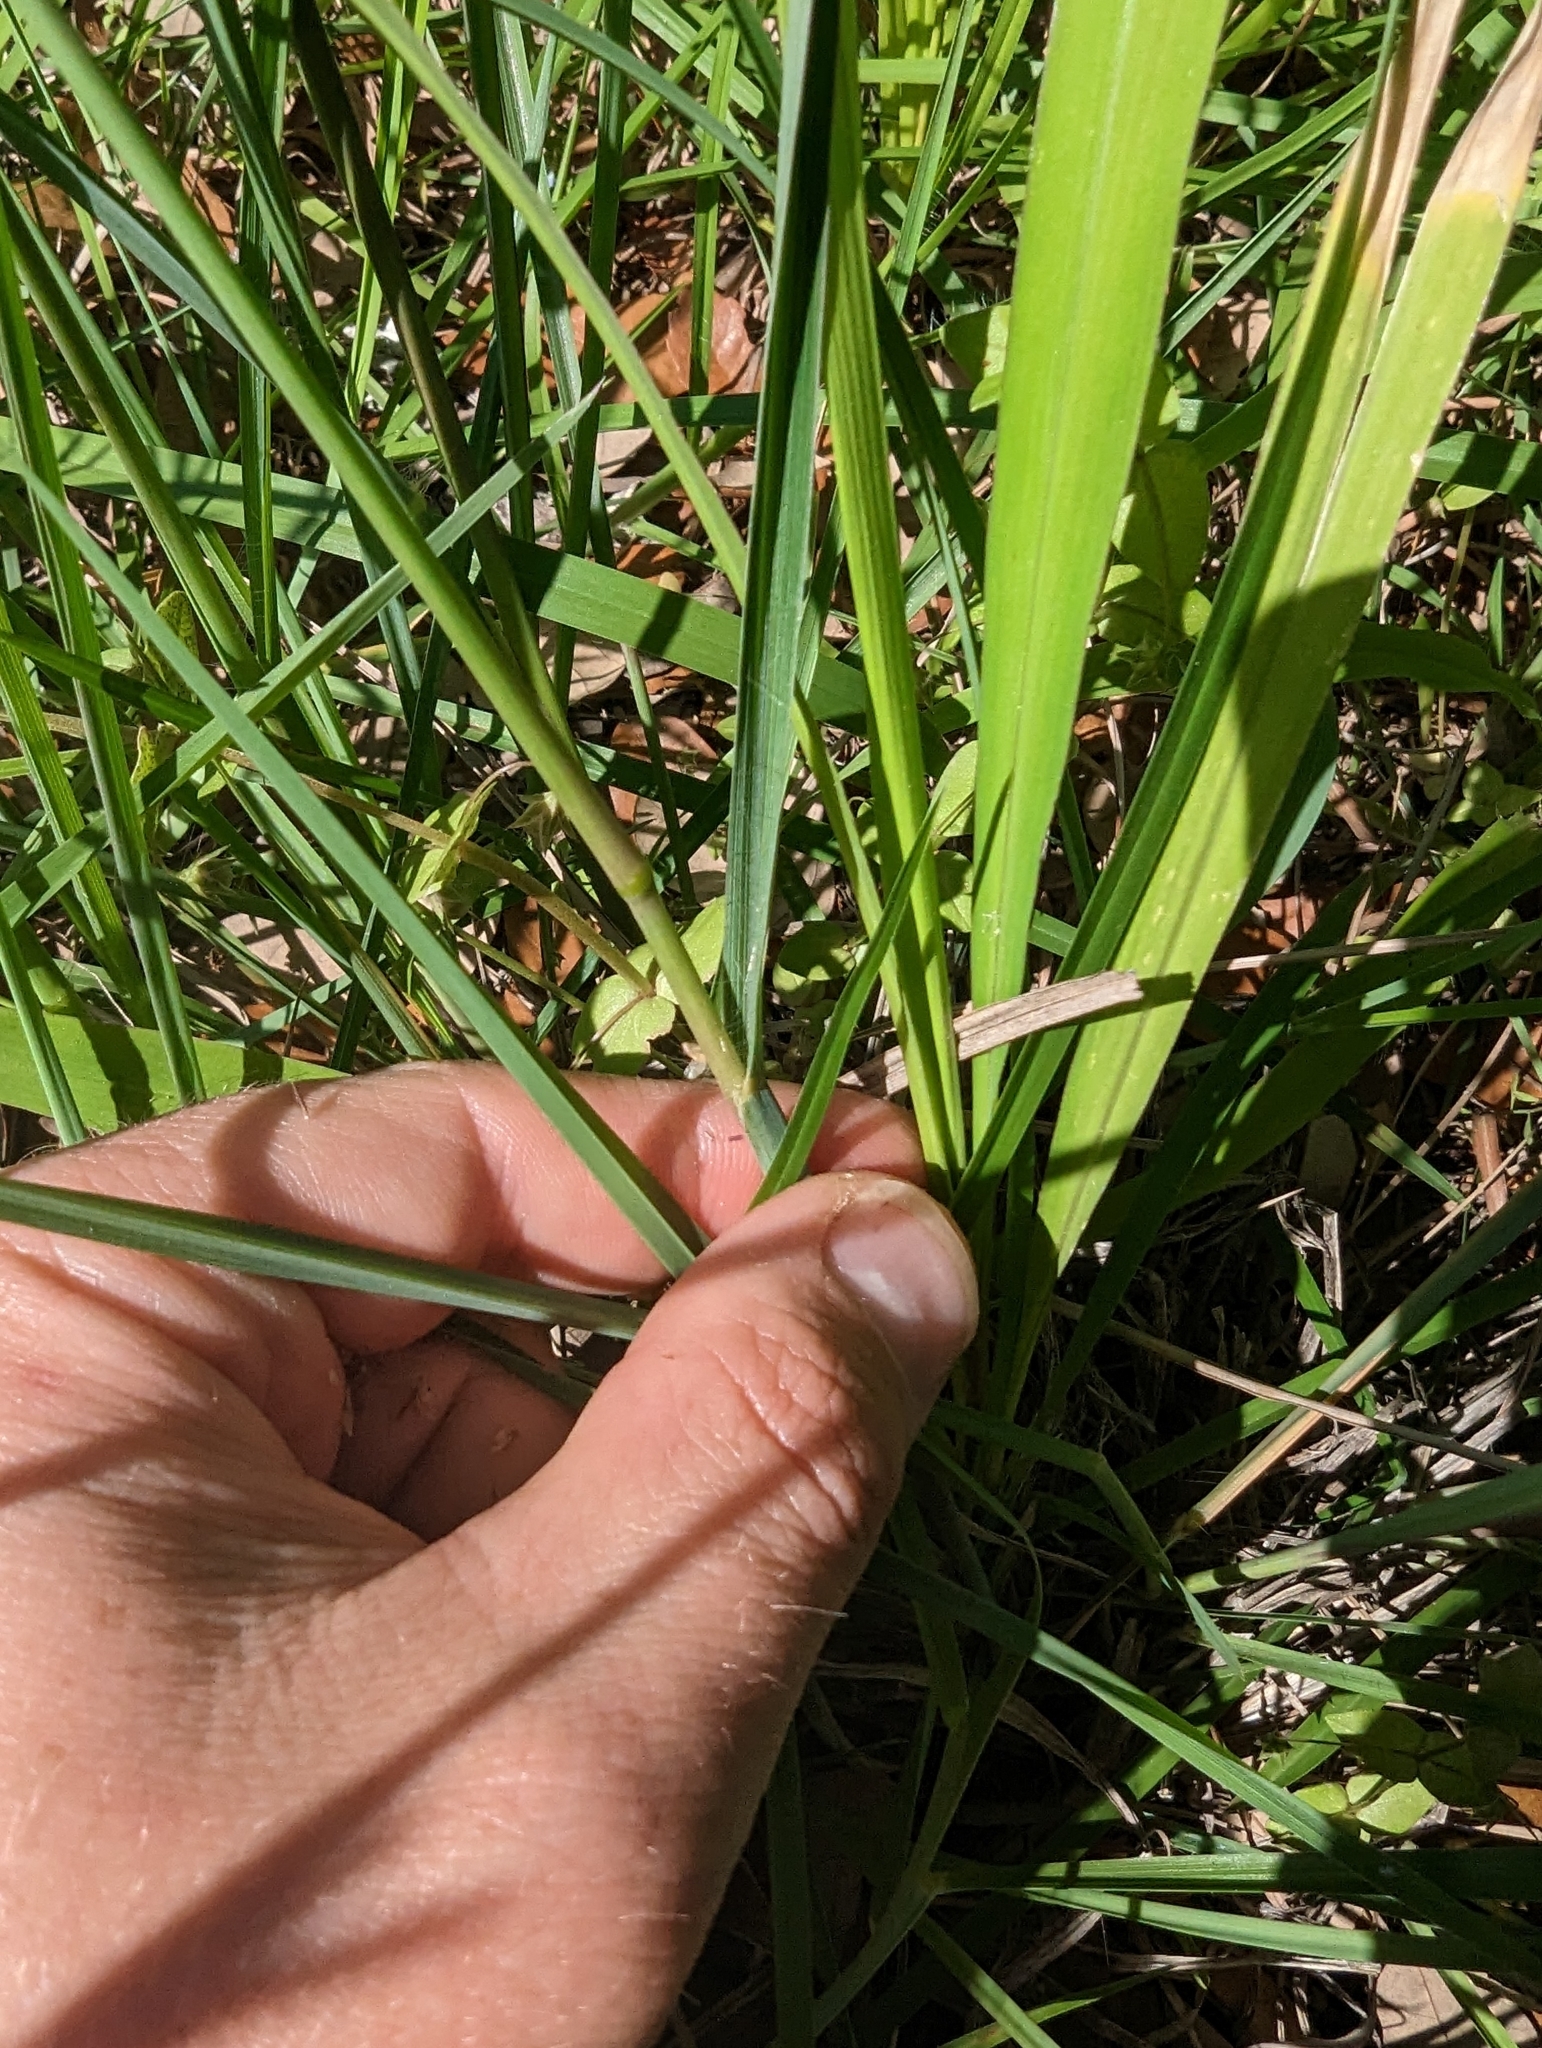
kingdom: Plantae
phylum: Tracheophyta
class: Liliopsida
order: Poales
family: Poaceae
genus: Paspalum
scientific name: Paspalum plicatulum
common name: Top paspalum
